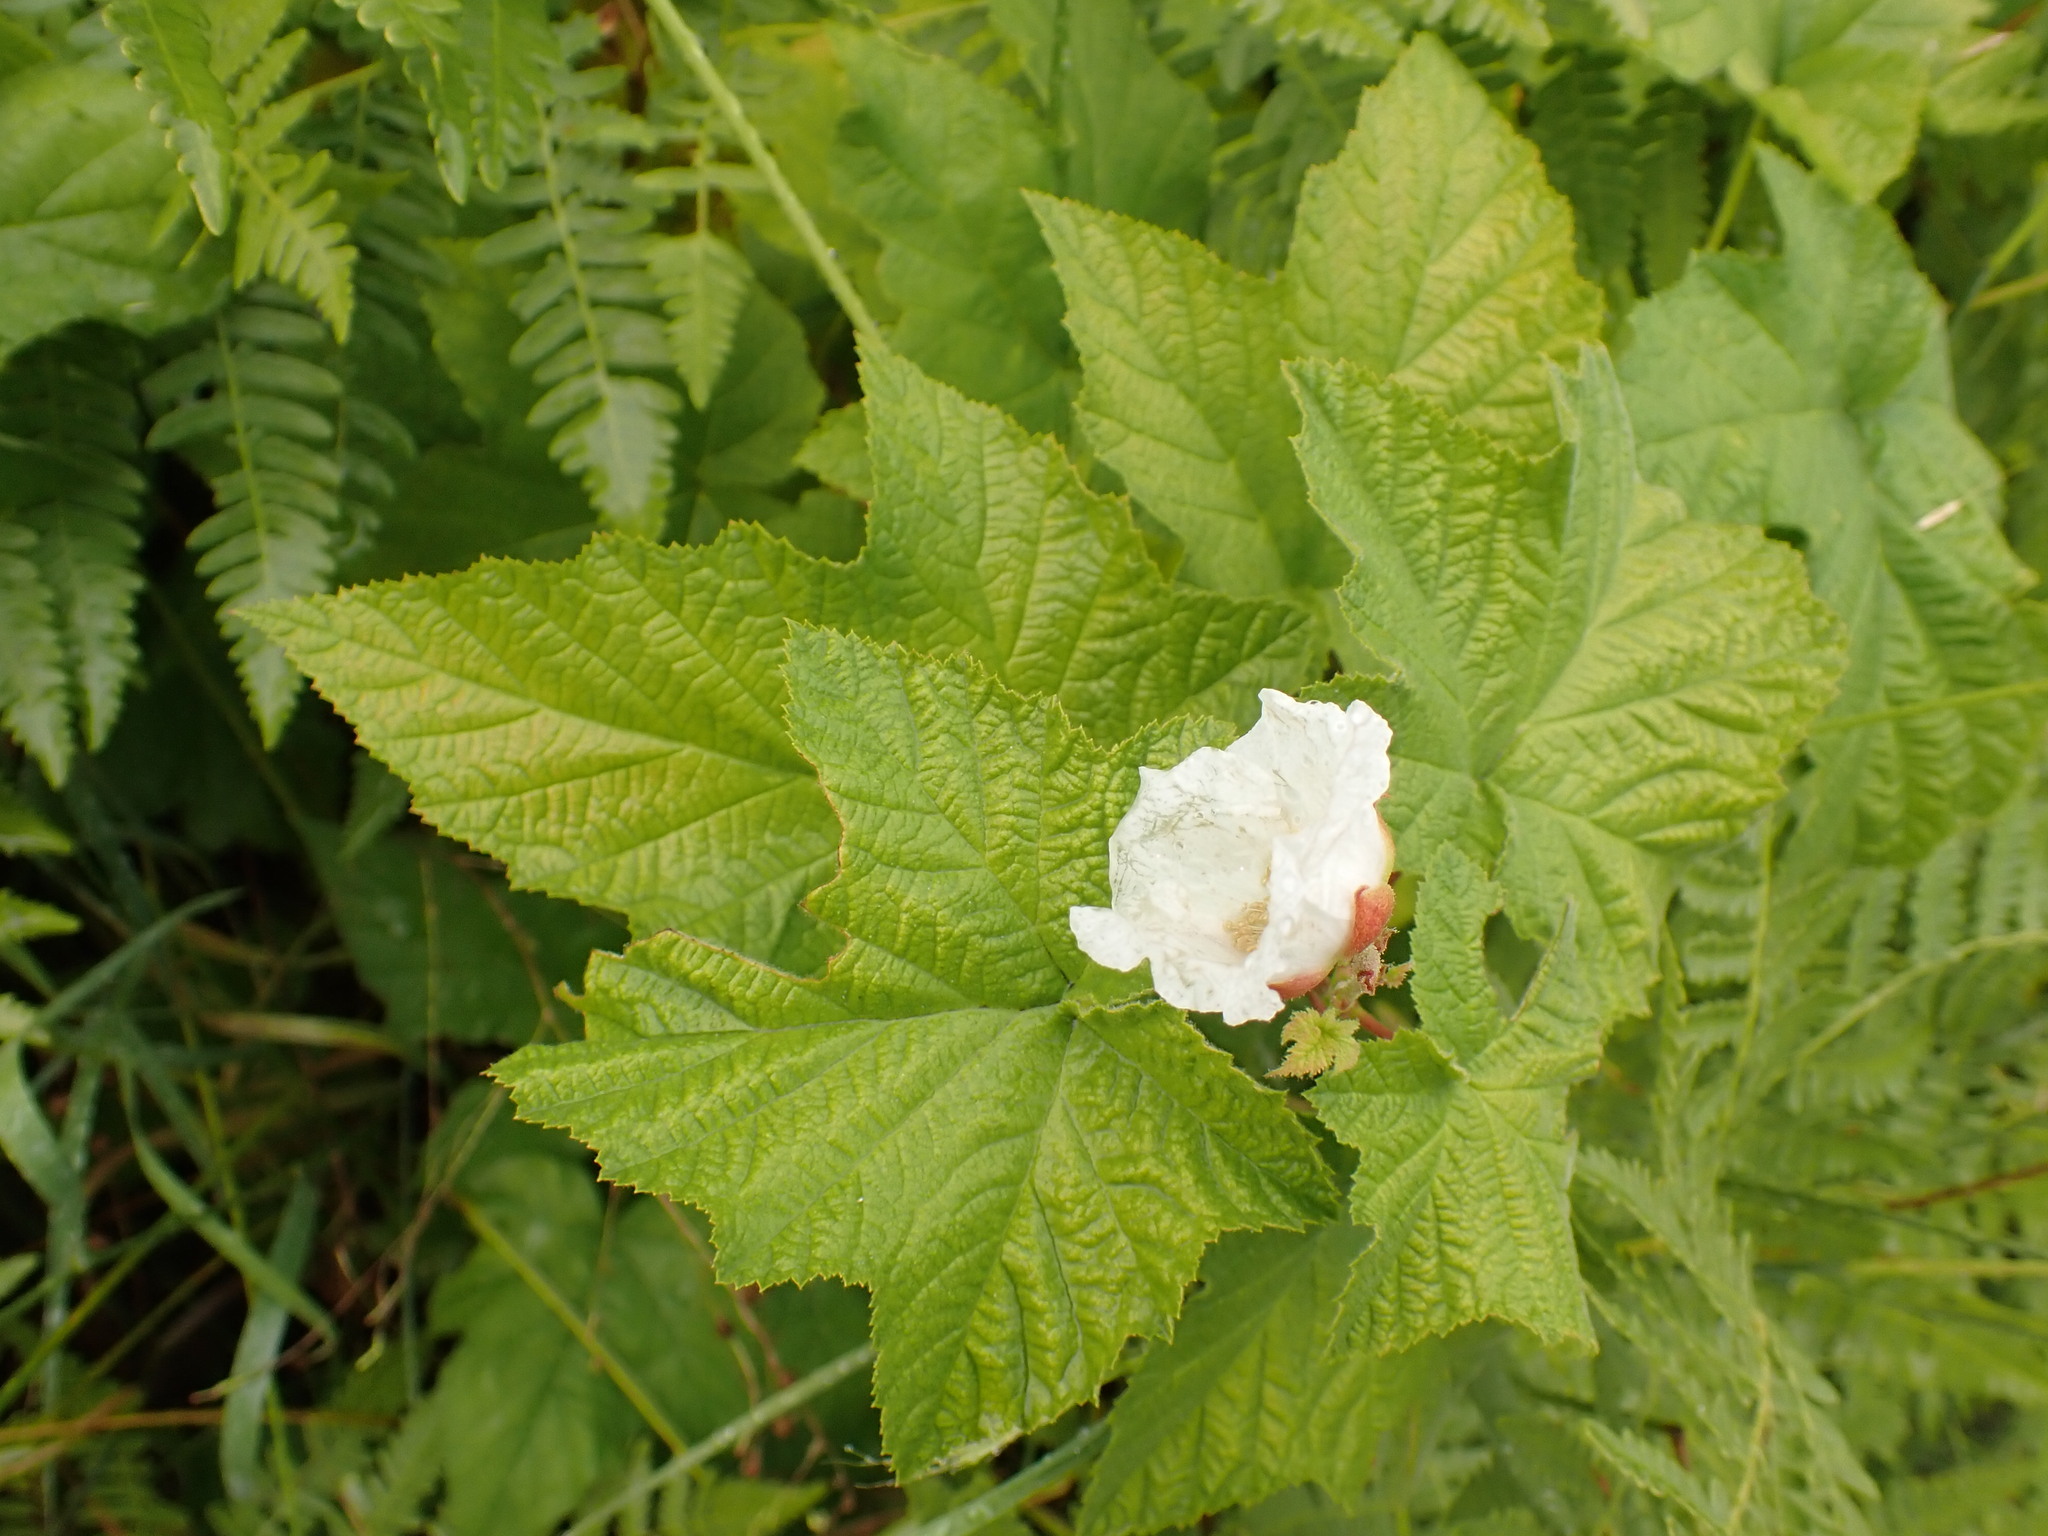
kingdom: Plantae
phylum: Tracheophyta
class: Magnoliopsida
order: Rosales
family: Rosaceae
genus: Rubus
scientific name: Rubus parviflorus
